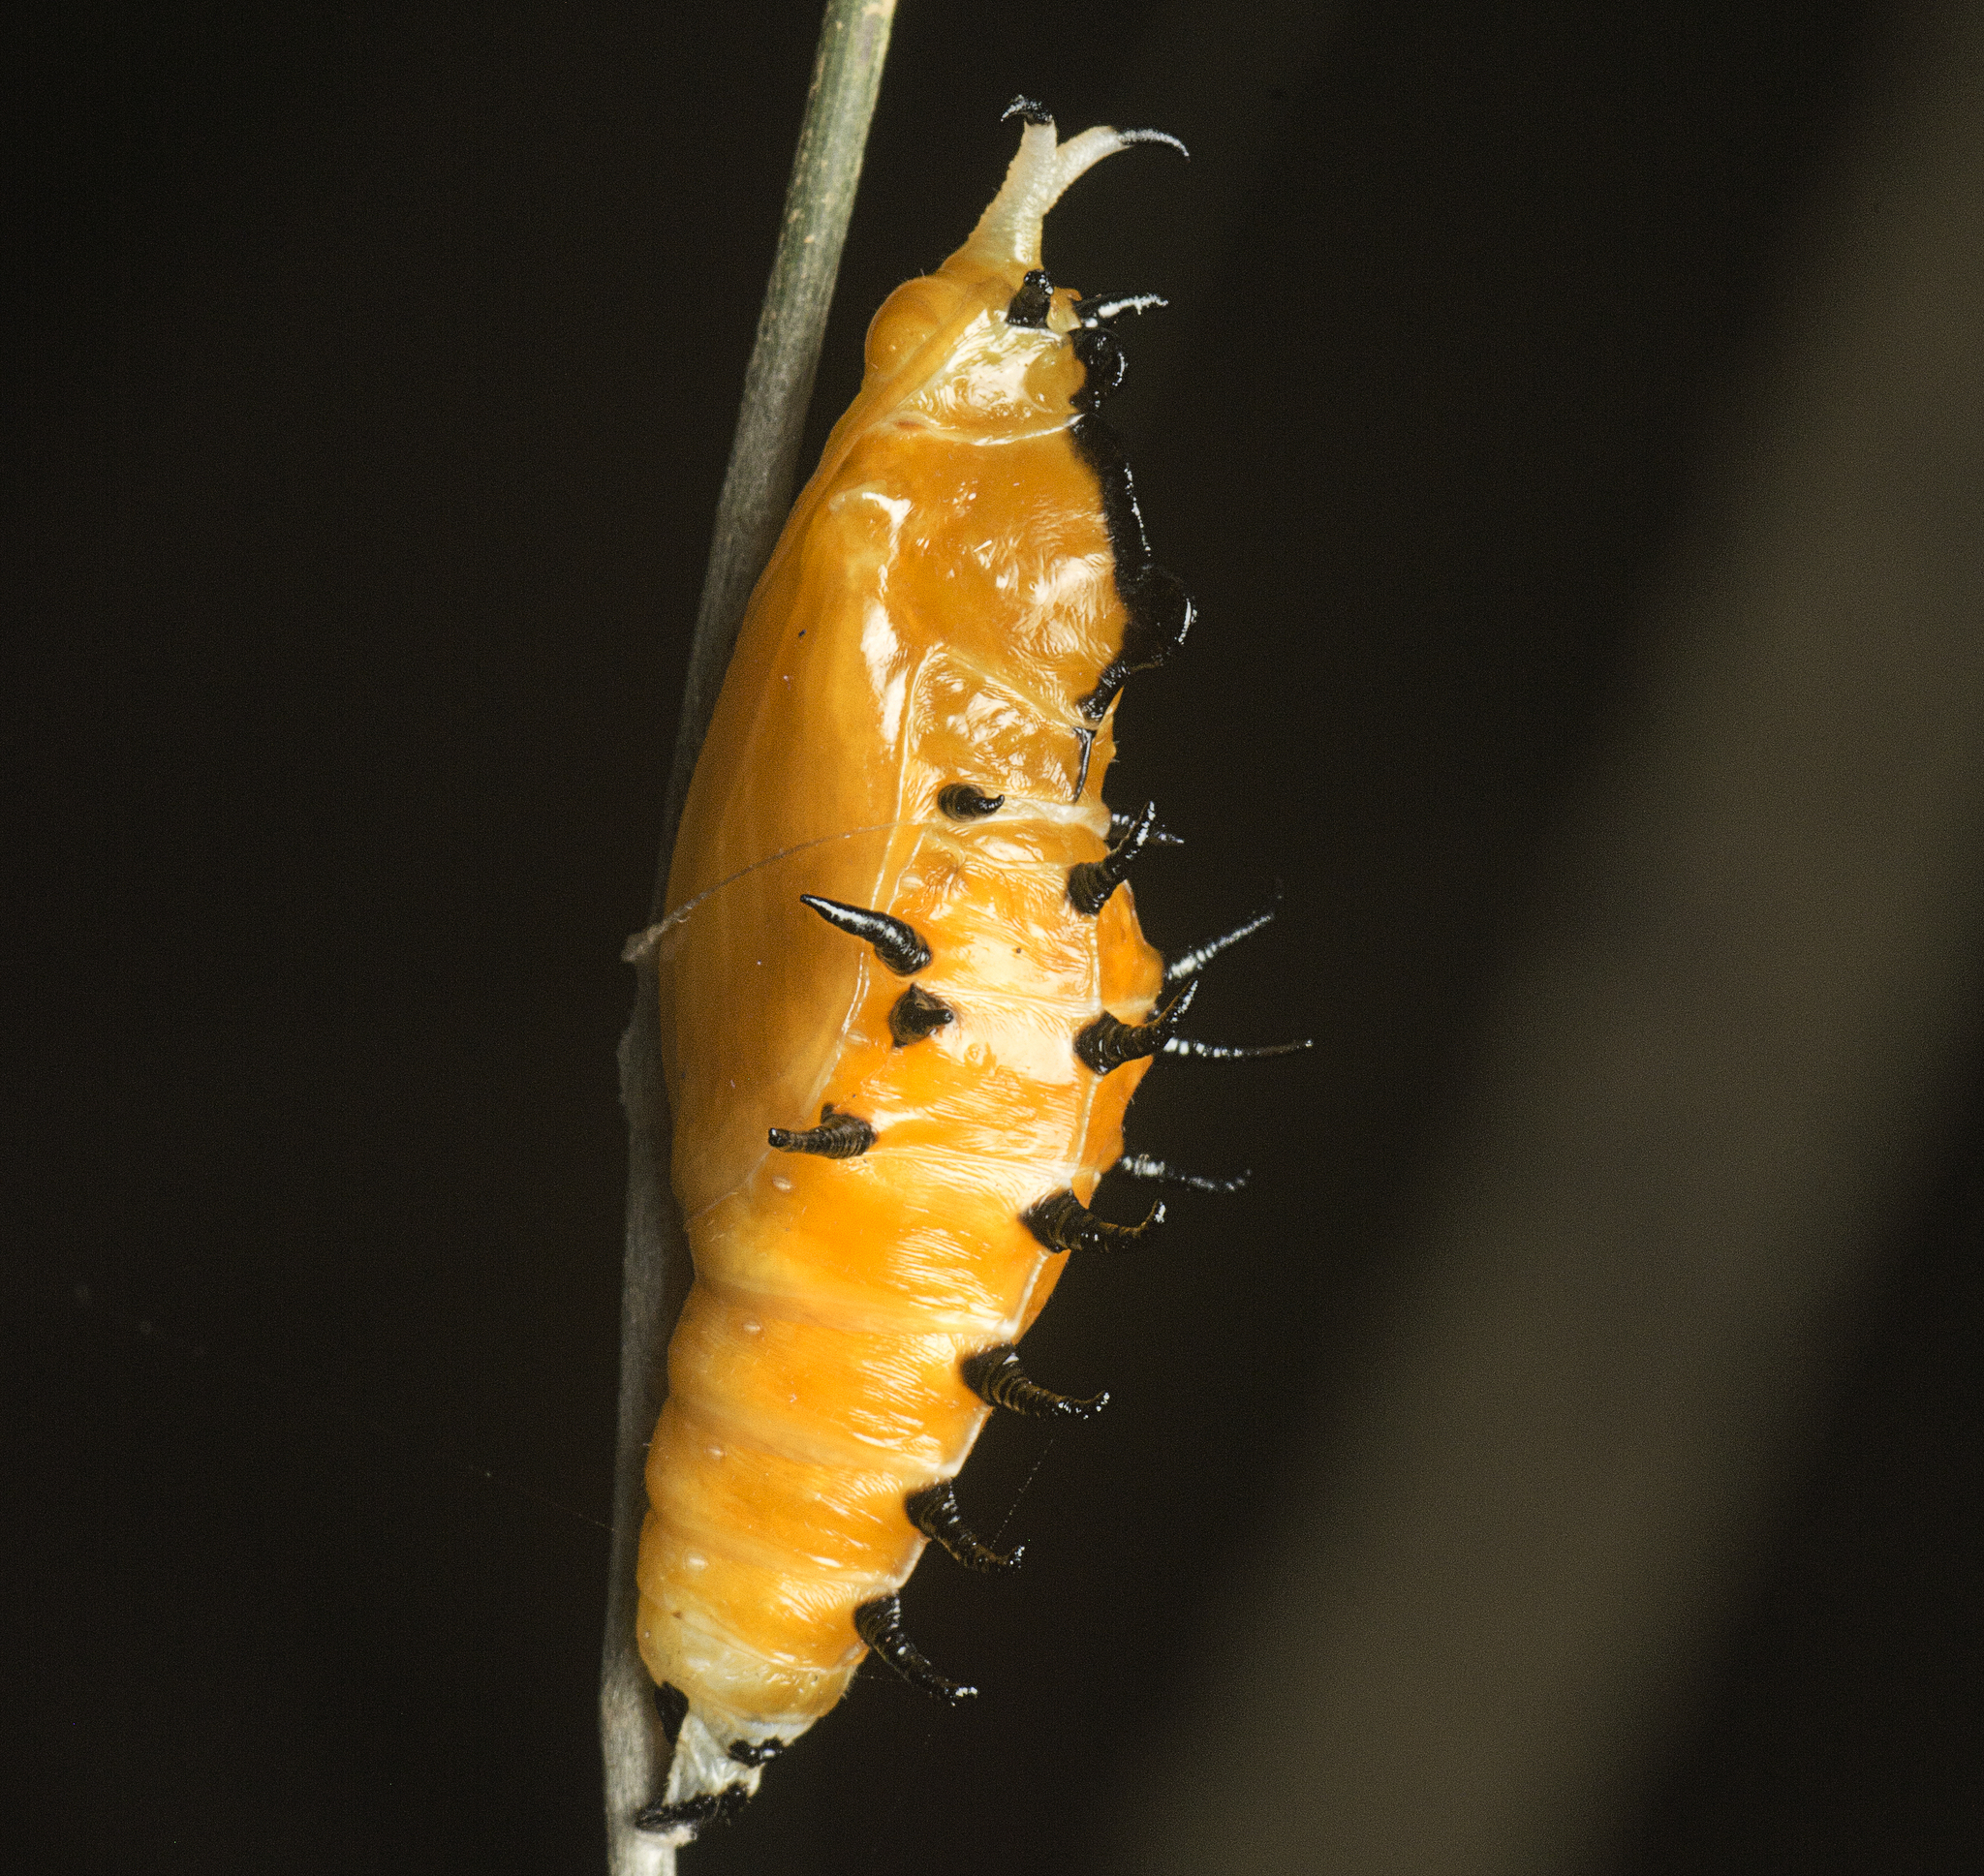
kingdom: Animalia
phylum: Arthropoda
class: Insecta
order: Lepidoptera
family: Pieridae
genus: Delias
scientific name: Delias nigrina
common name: Black jezebel
